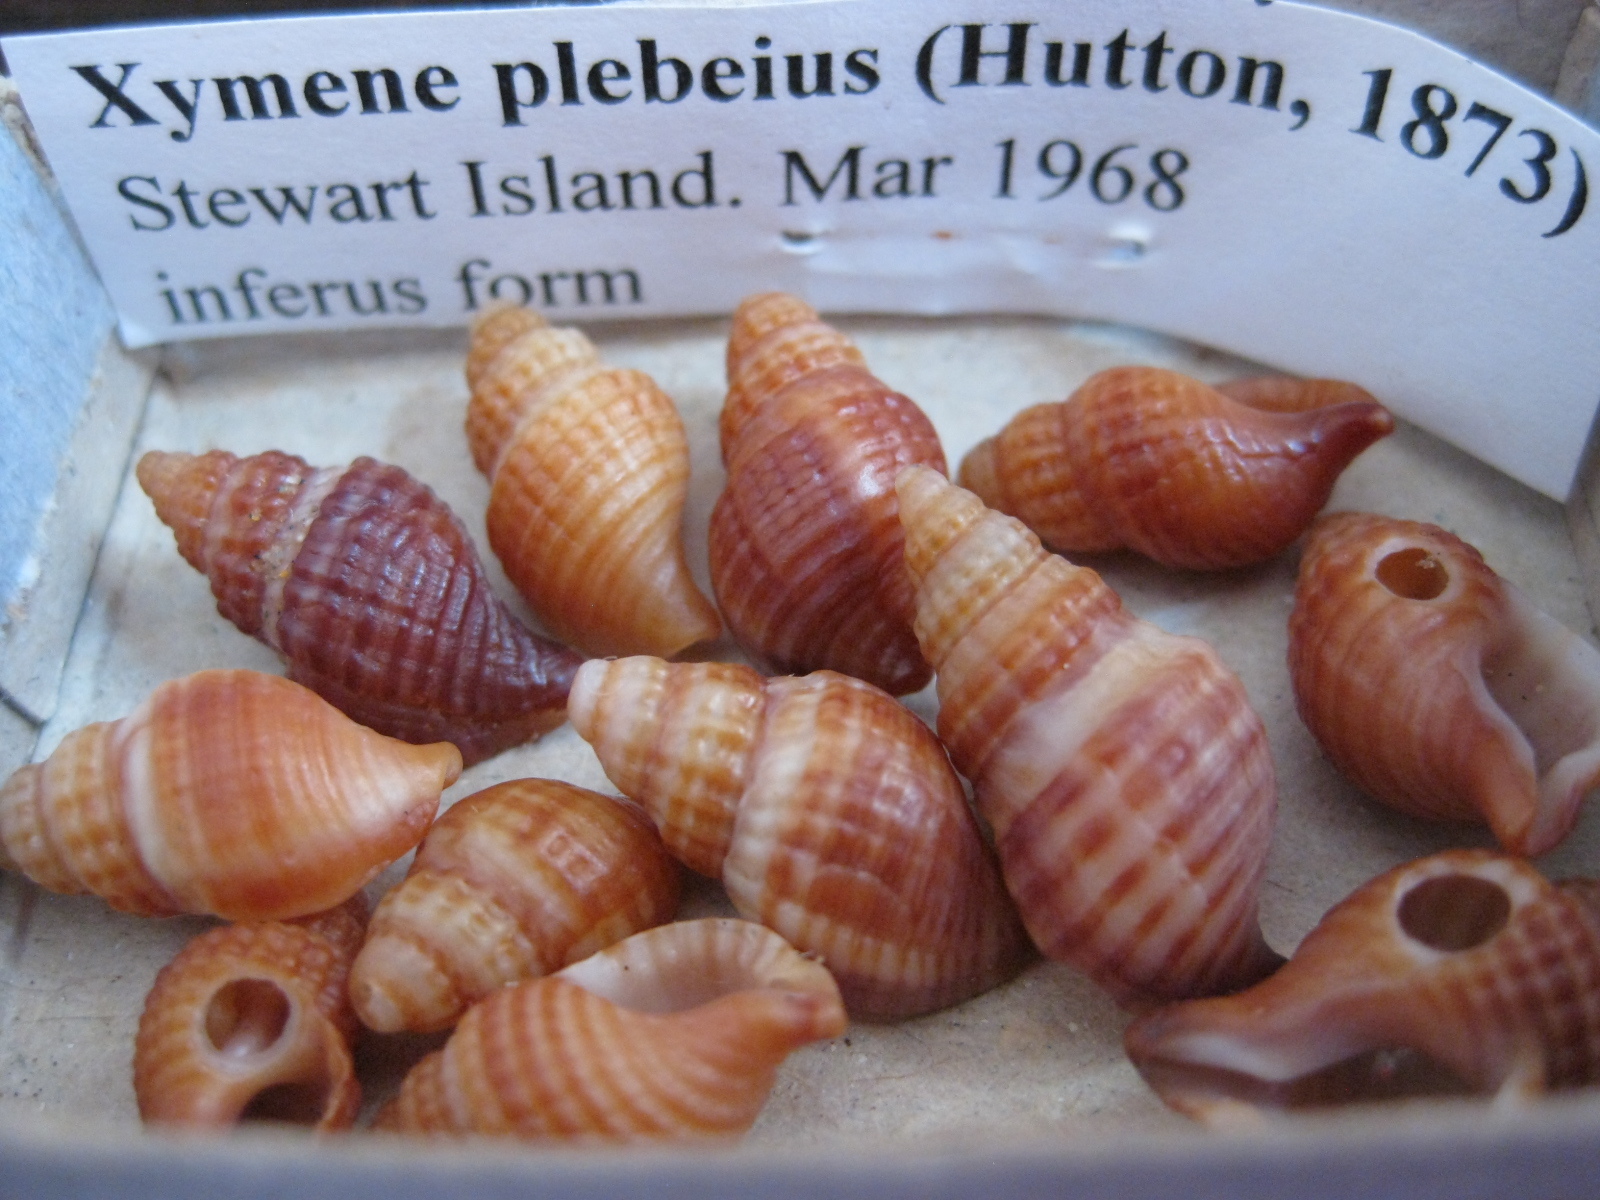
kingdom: Animalia
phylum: Mollusca
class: Gastropoda
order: Neogastropoda
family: Muricidae
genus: Xymene
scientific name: Xymene plebeius
